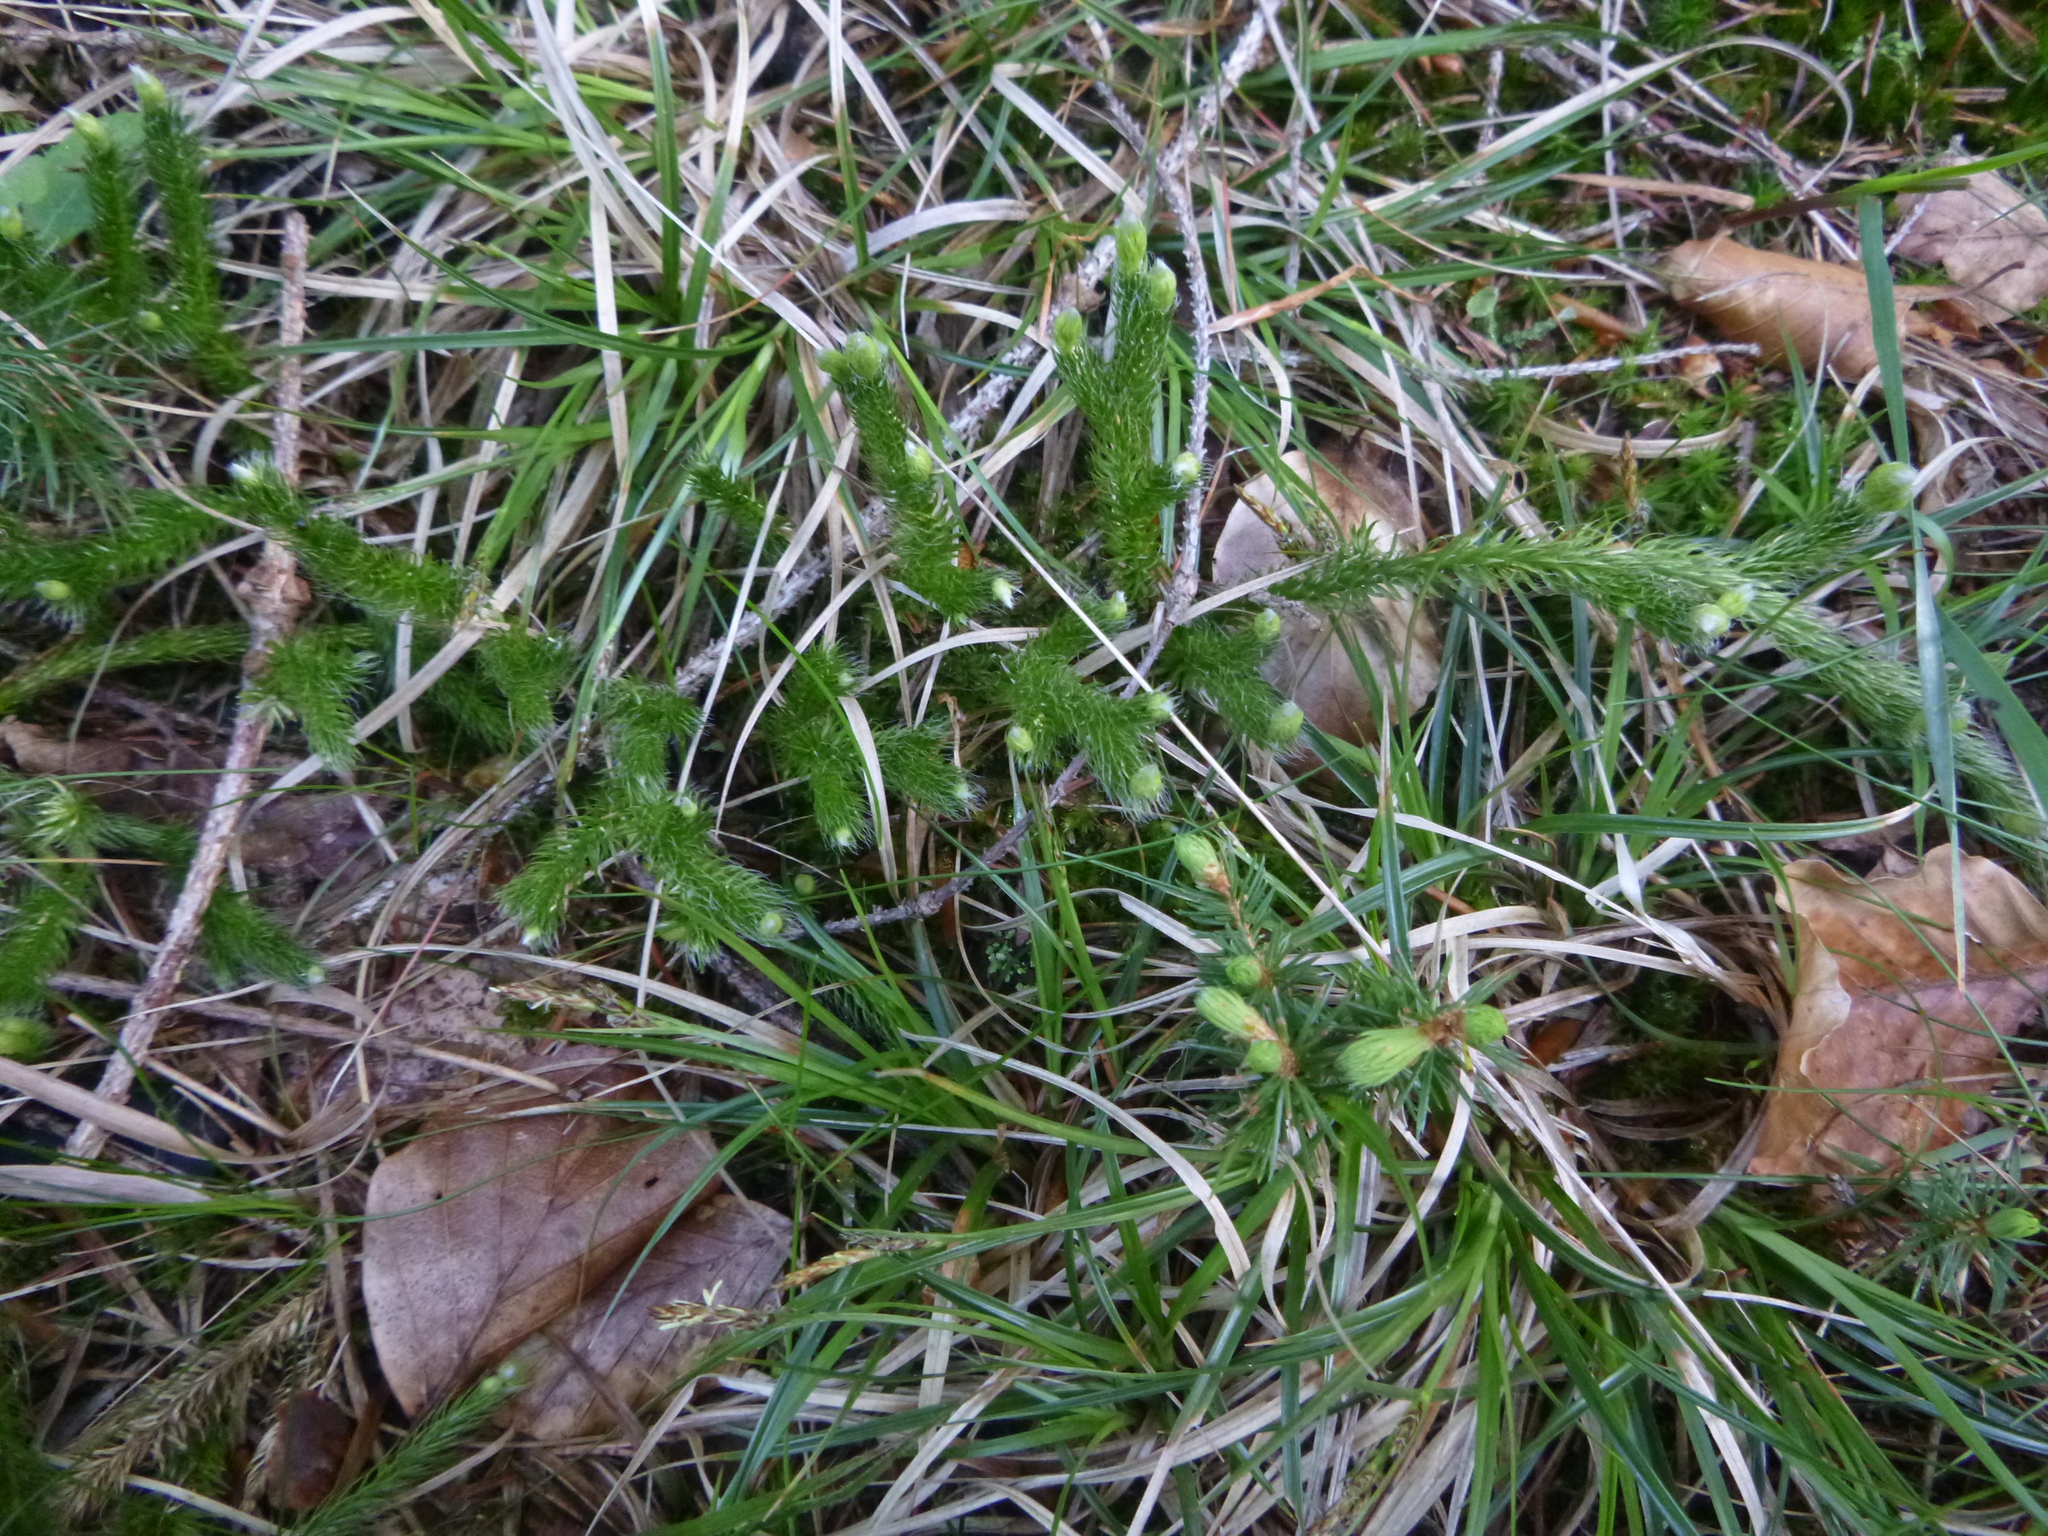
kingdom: Plantae
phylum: Tracheophyta
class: Lycopodiopsida
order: Lycopodiales
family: Lycopodiaceae
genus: Lycopodium
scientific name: Lycopodium clavatum
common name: Stag's-horn clubmoss
